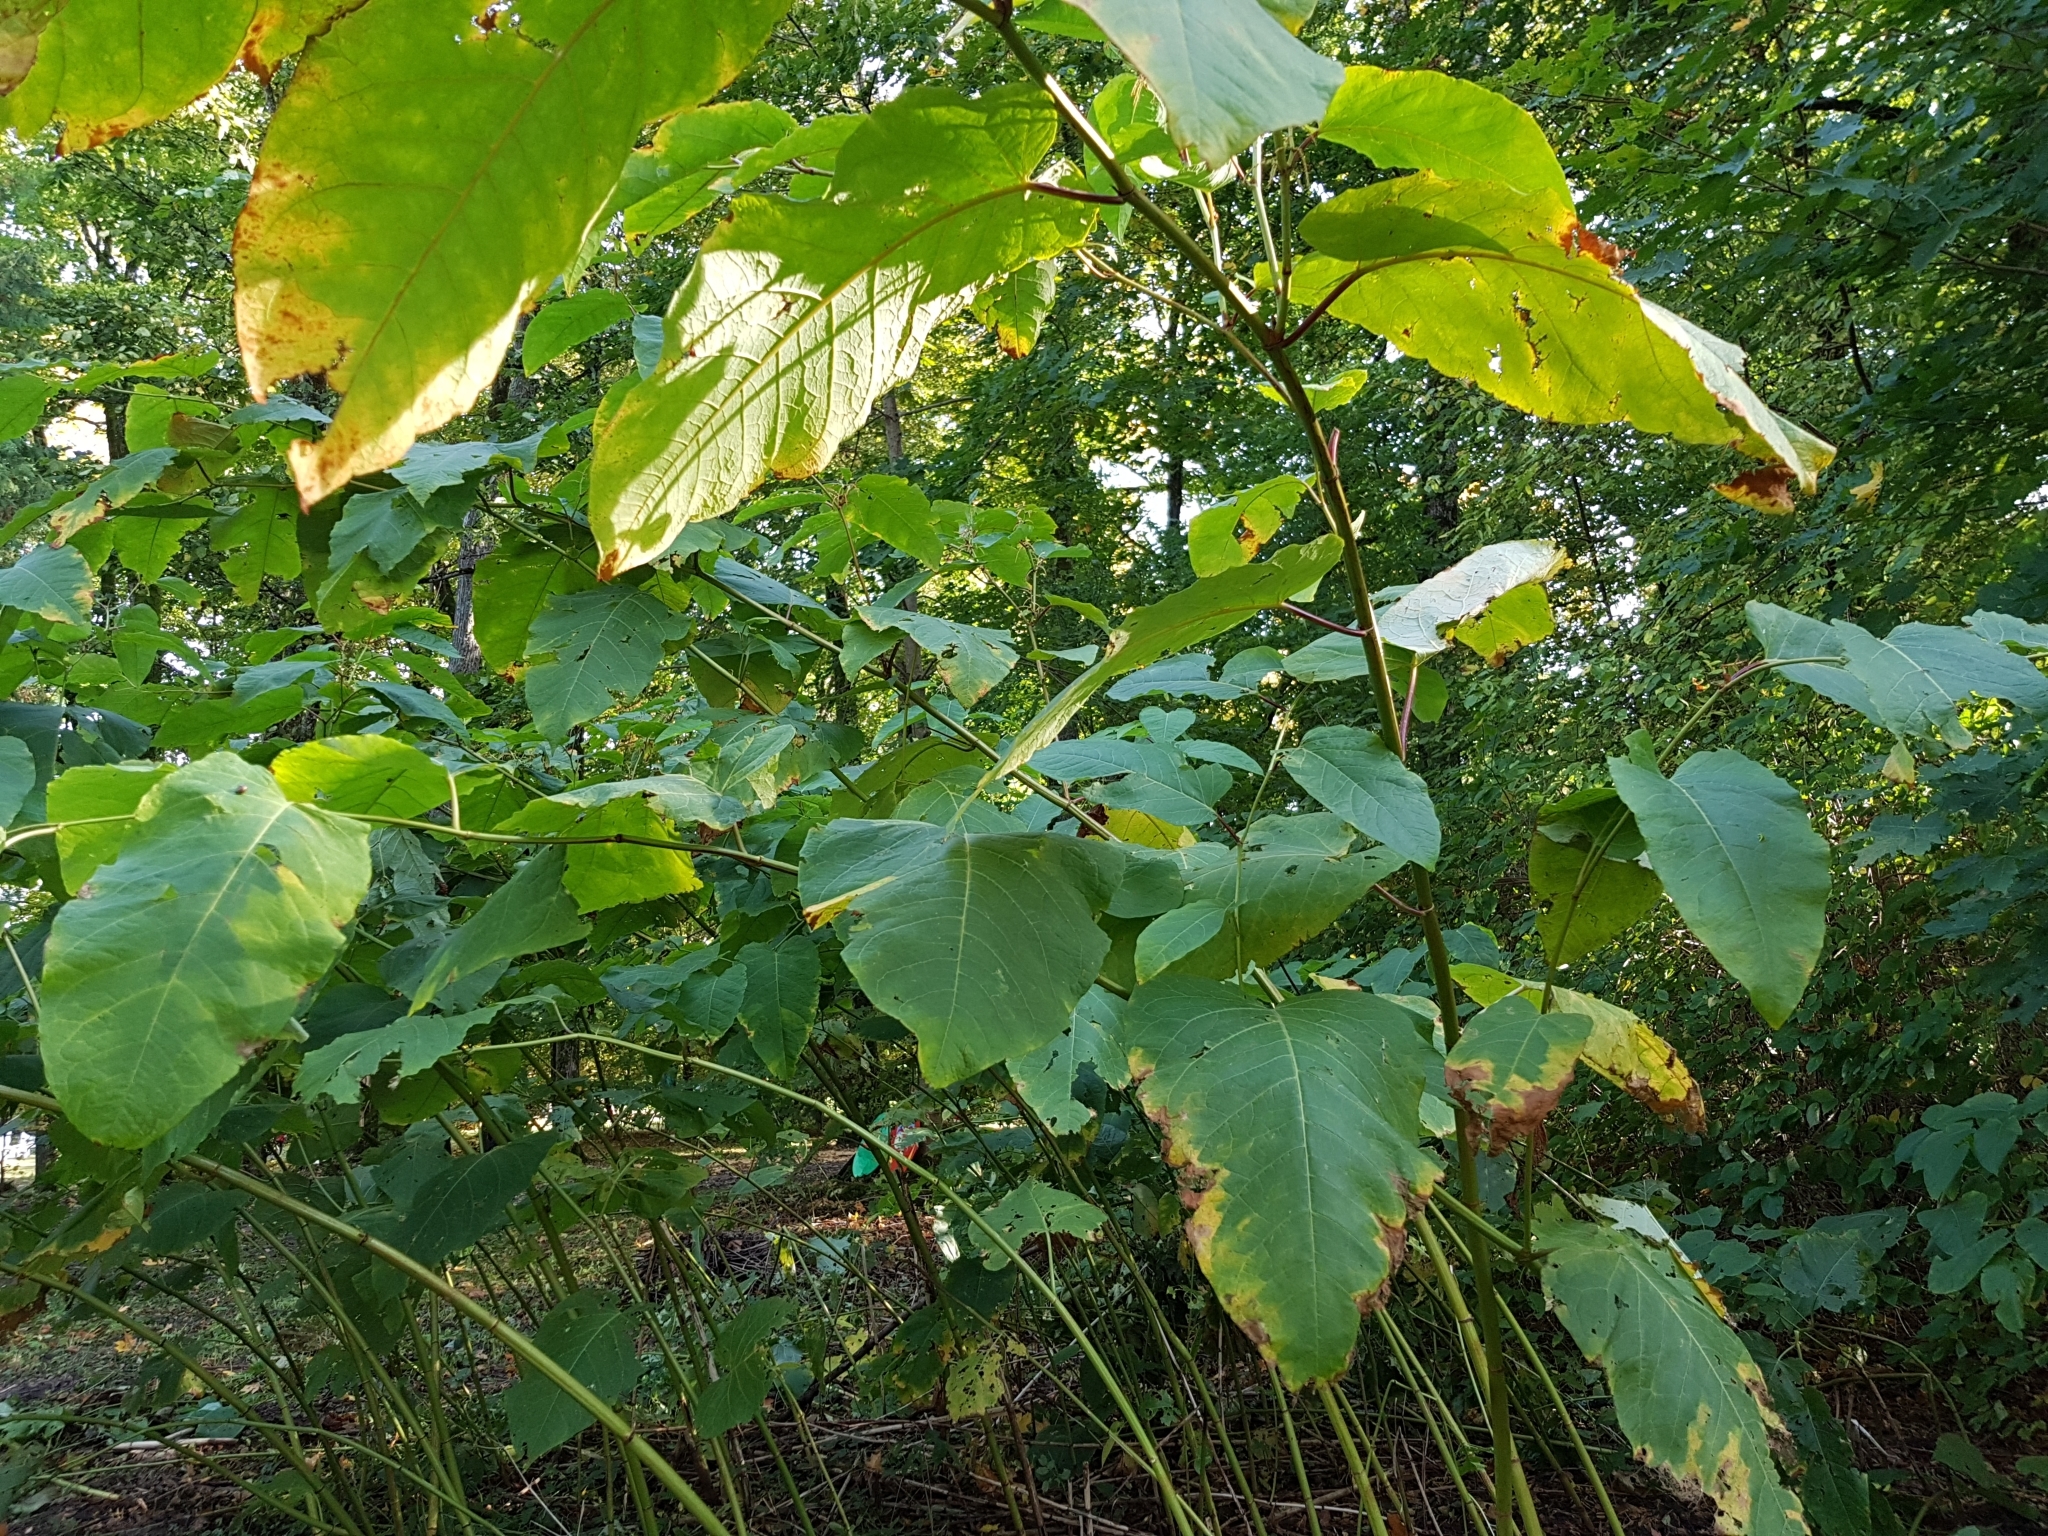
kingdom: Plantae
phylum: Tracheophyta
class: Magnoliopsida
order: Caryophyllales
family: Polygonaceae
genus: Reynoutria
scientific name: Reynoutria japonica
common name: Japanese knotweed
